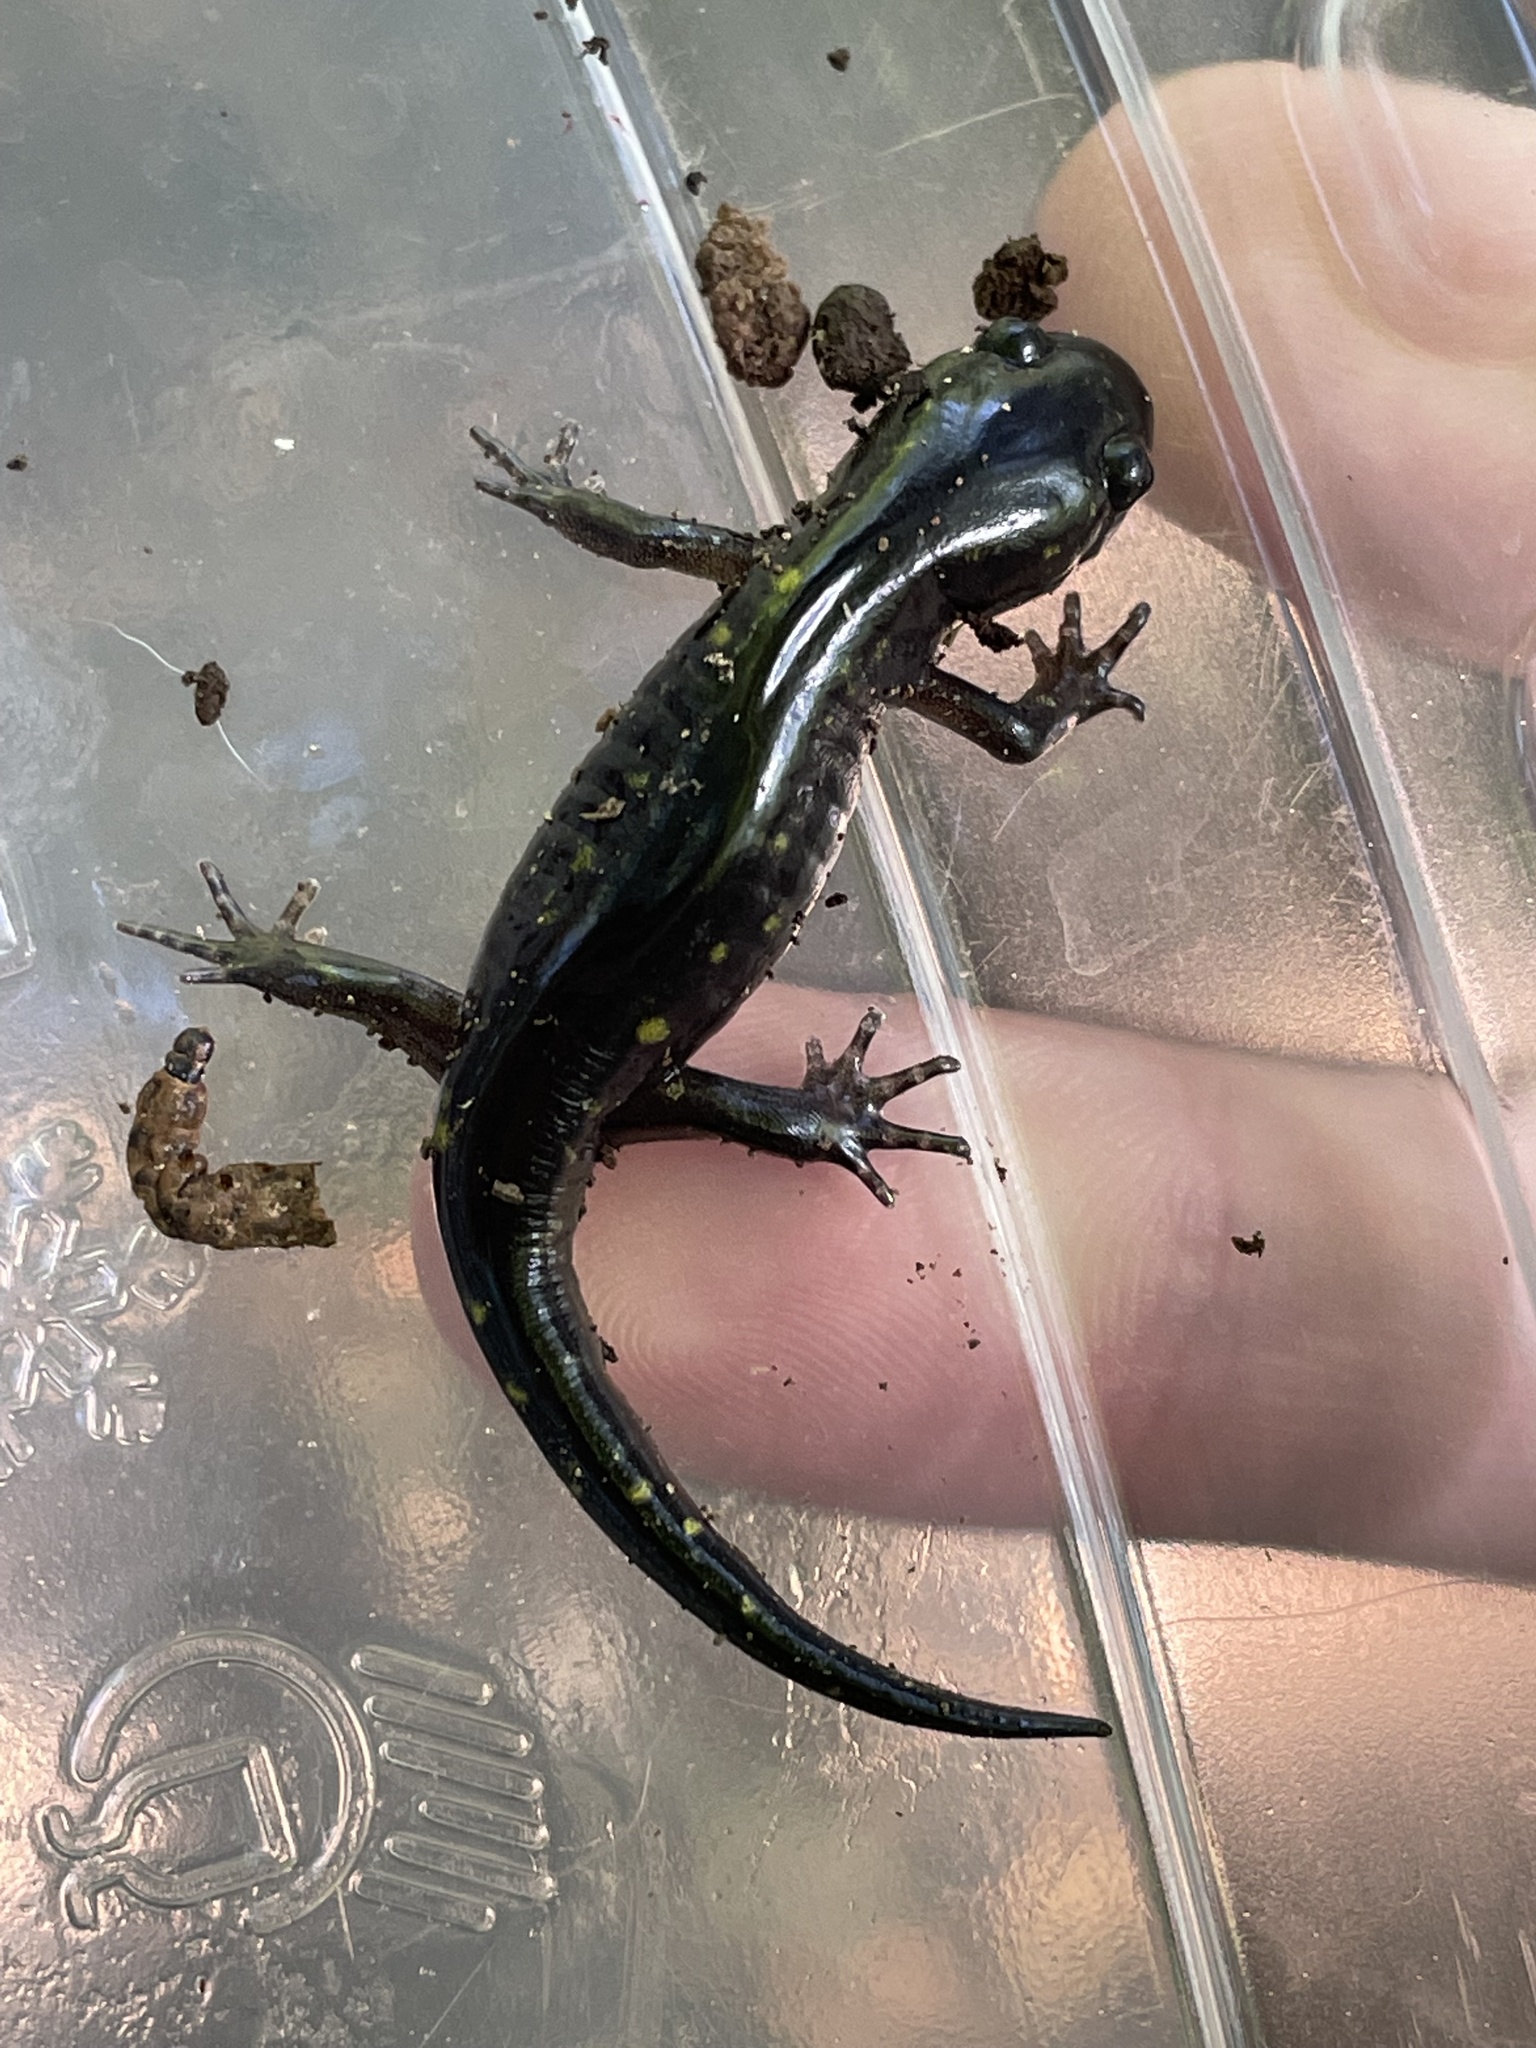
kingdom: Animalia
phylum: Chordata
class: Amphibia
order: Caudata
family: Ambystomatidae
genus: Ambystoma
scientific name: Ambystoma maculatum
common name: Spotted salamander
